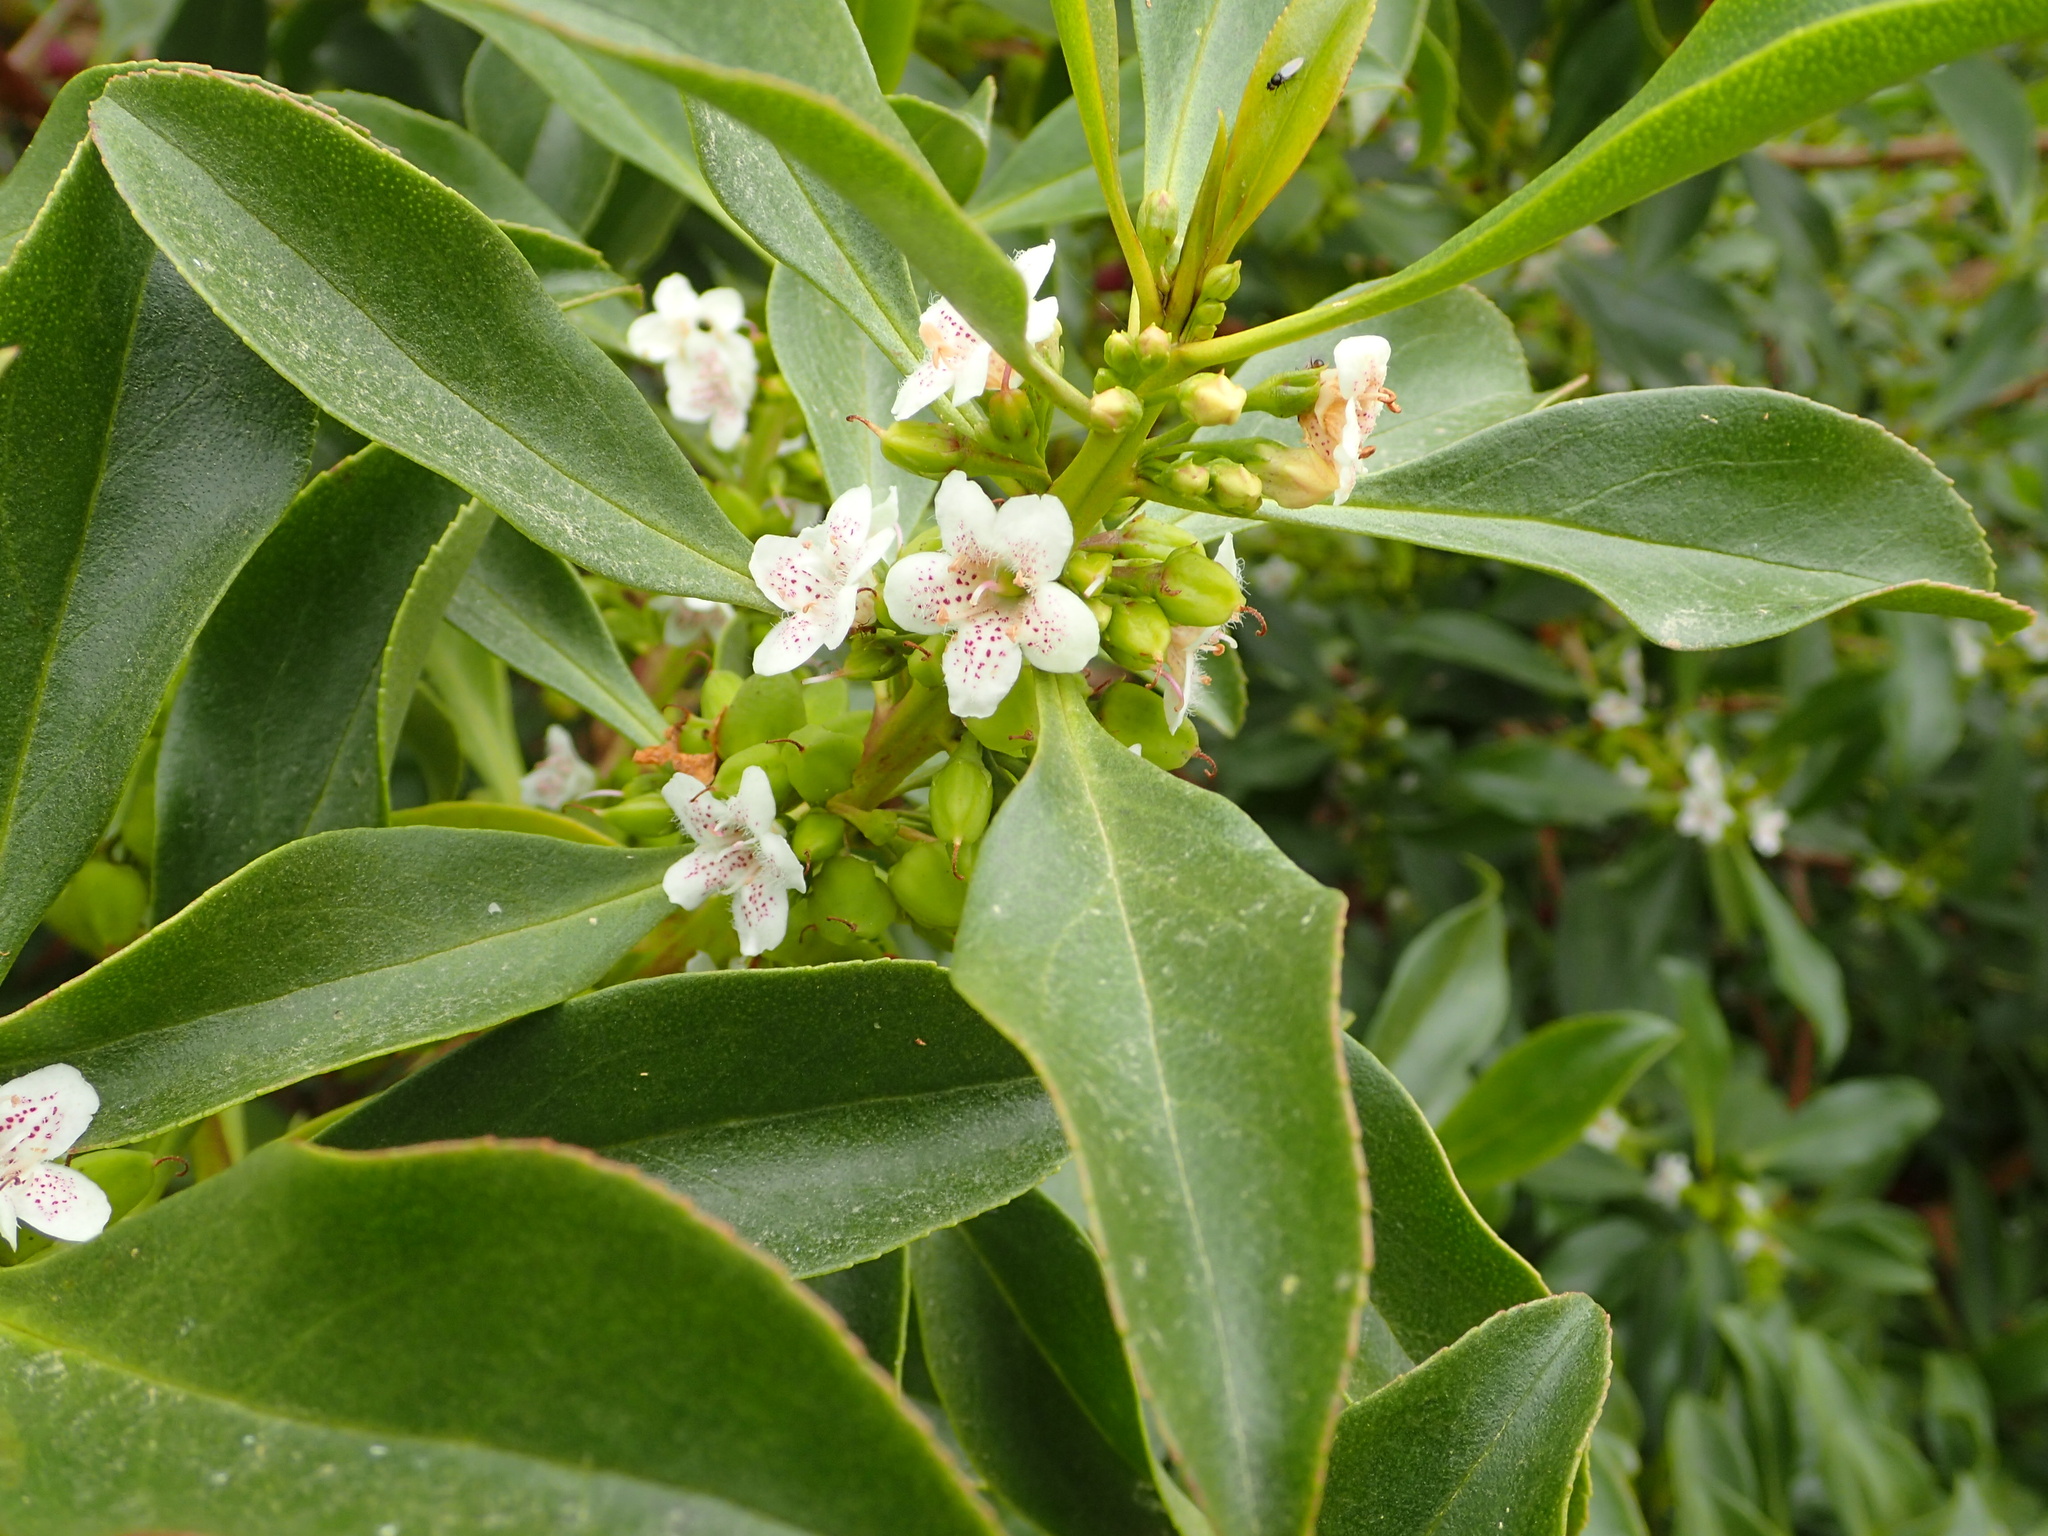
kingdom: Plantae
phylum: Tracheophyta
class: Magnoliopsida
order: Lamiales
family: Scrophulariaceae
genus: Myoporum
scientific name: Myoporum laetum
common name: Ngaio tree
